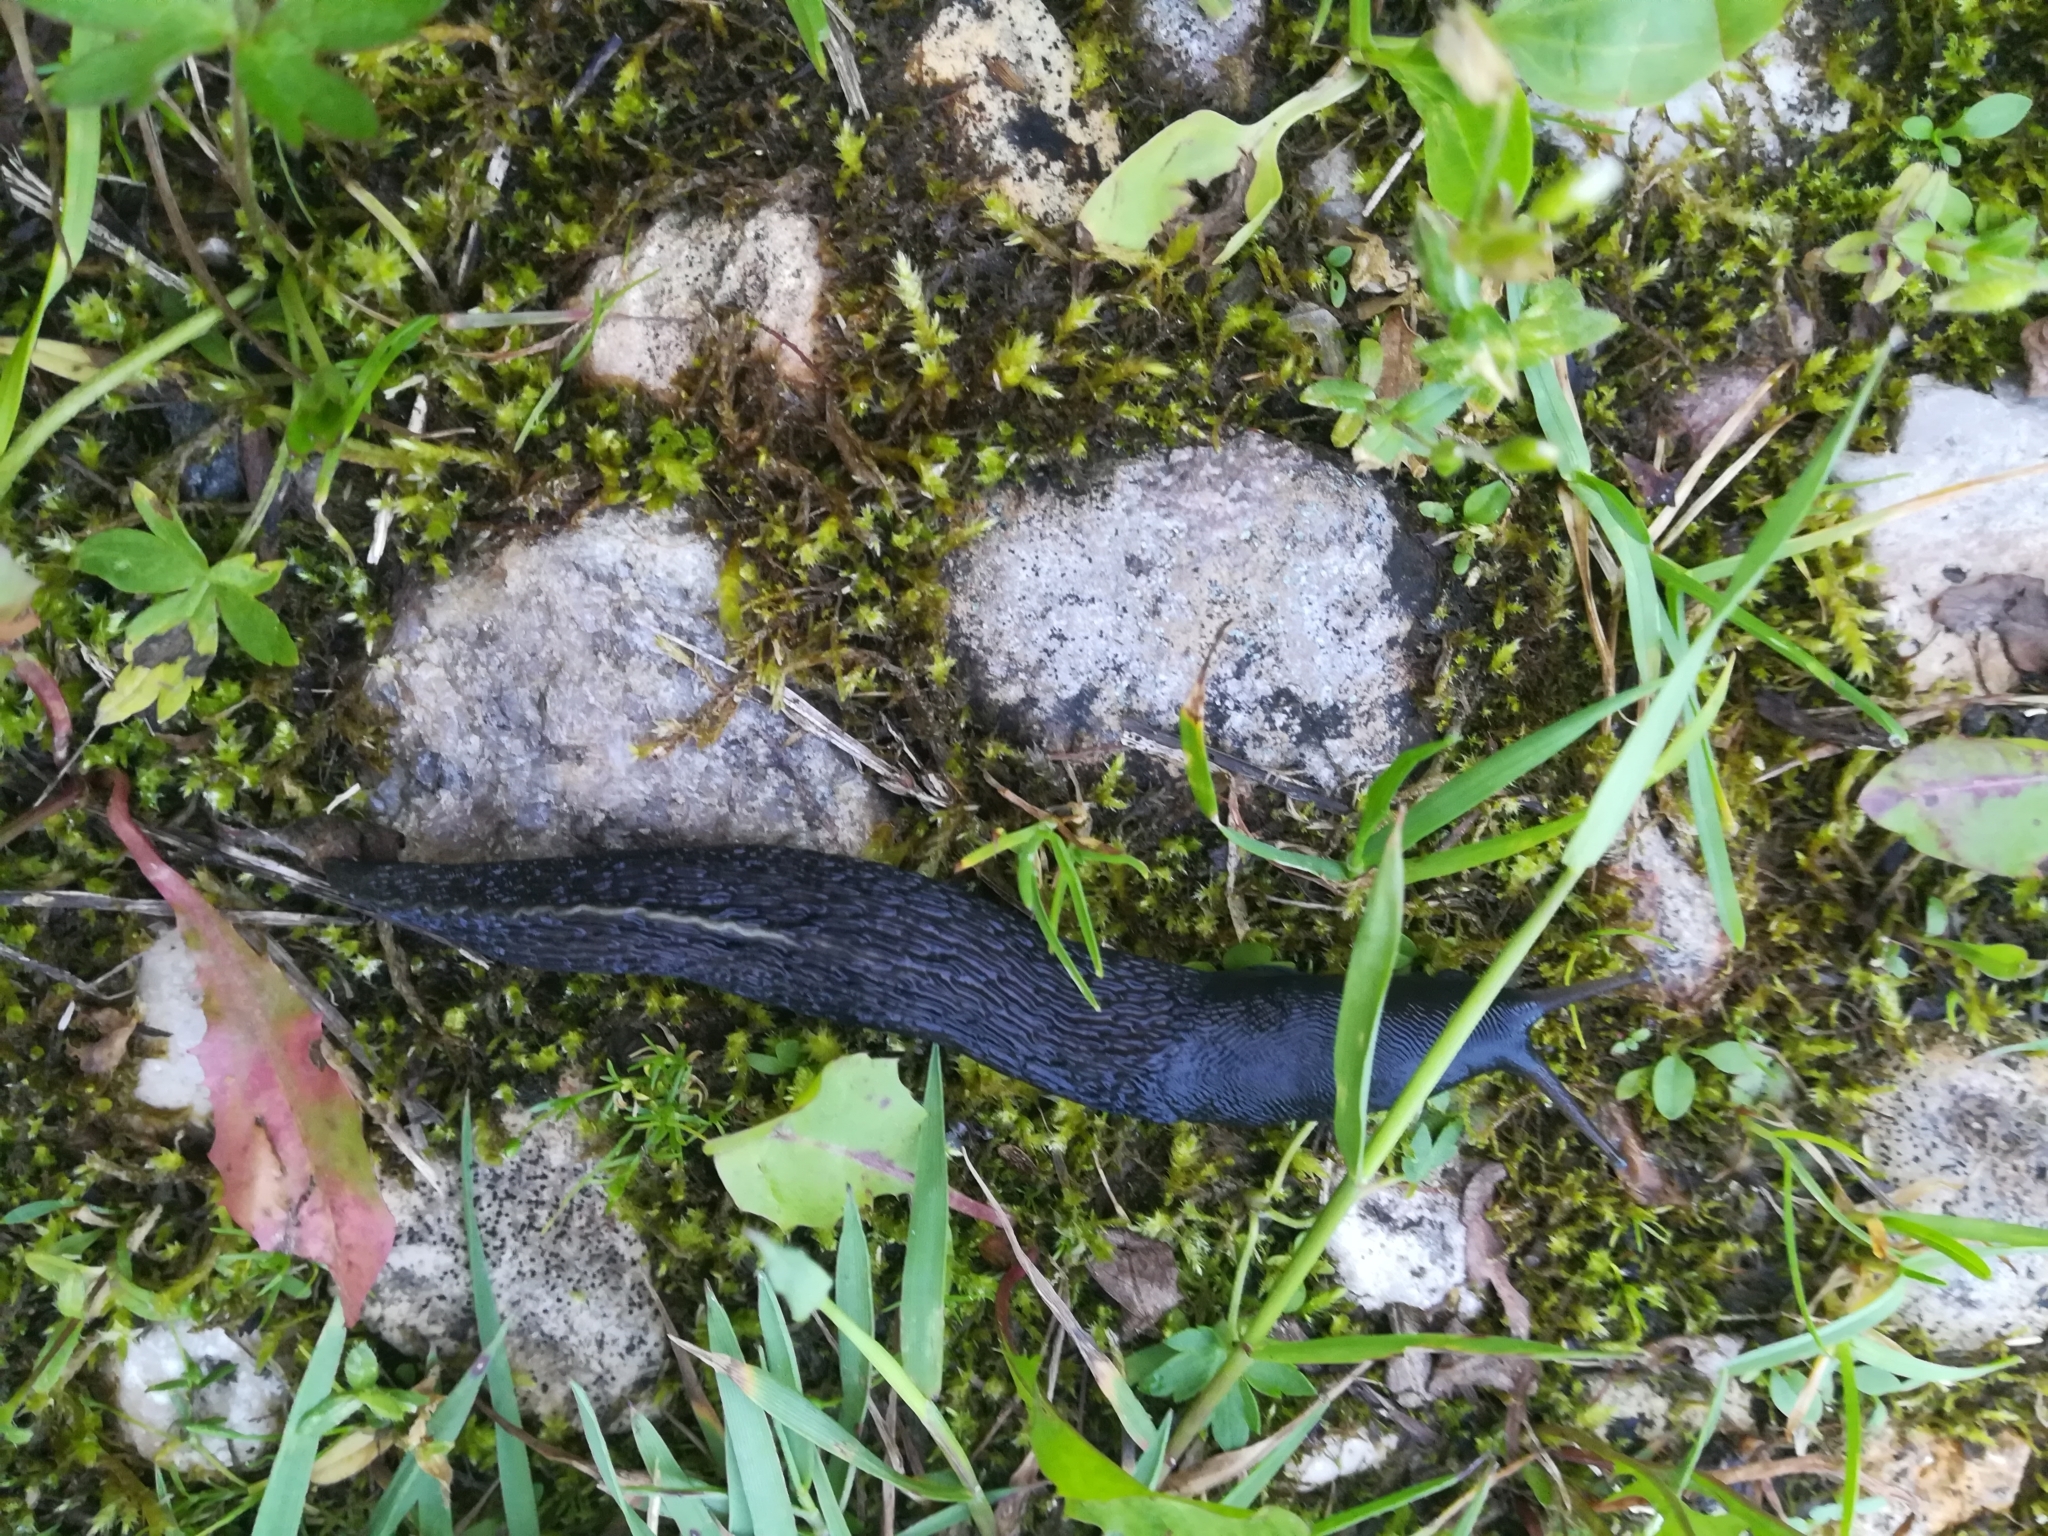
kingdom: Animalia
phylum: Mollusca
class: Gastropoda
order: Stylommatophora
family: Limacidae
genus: Limax
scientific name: Limax cinereoniger
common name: Ash-black slug
